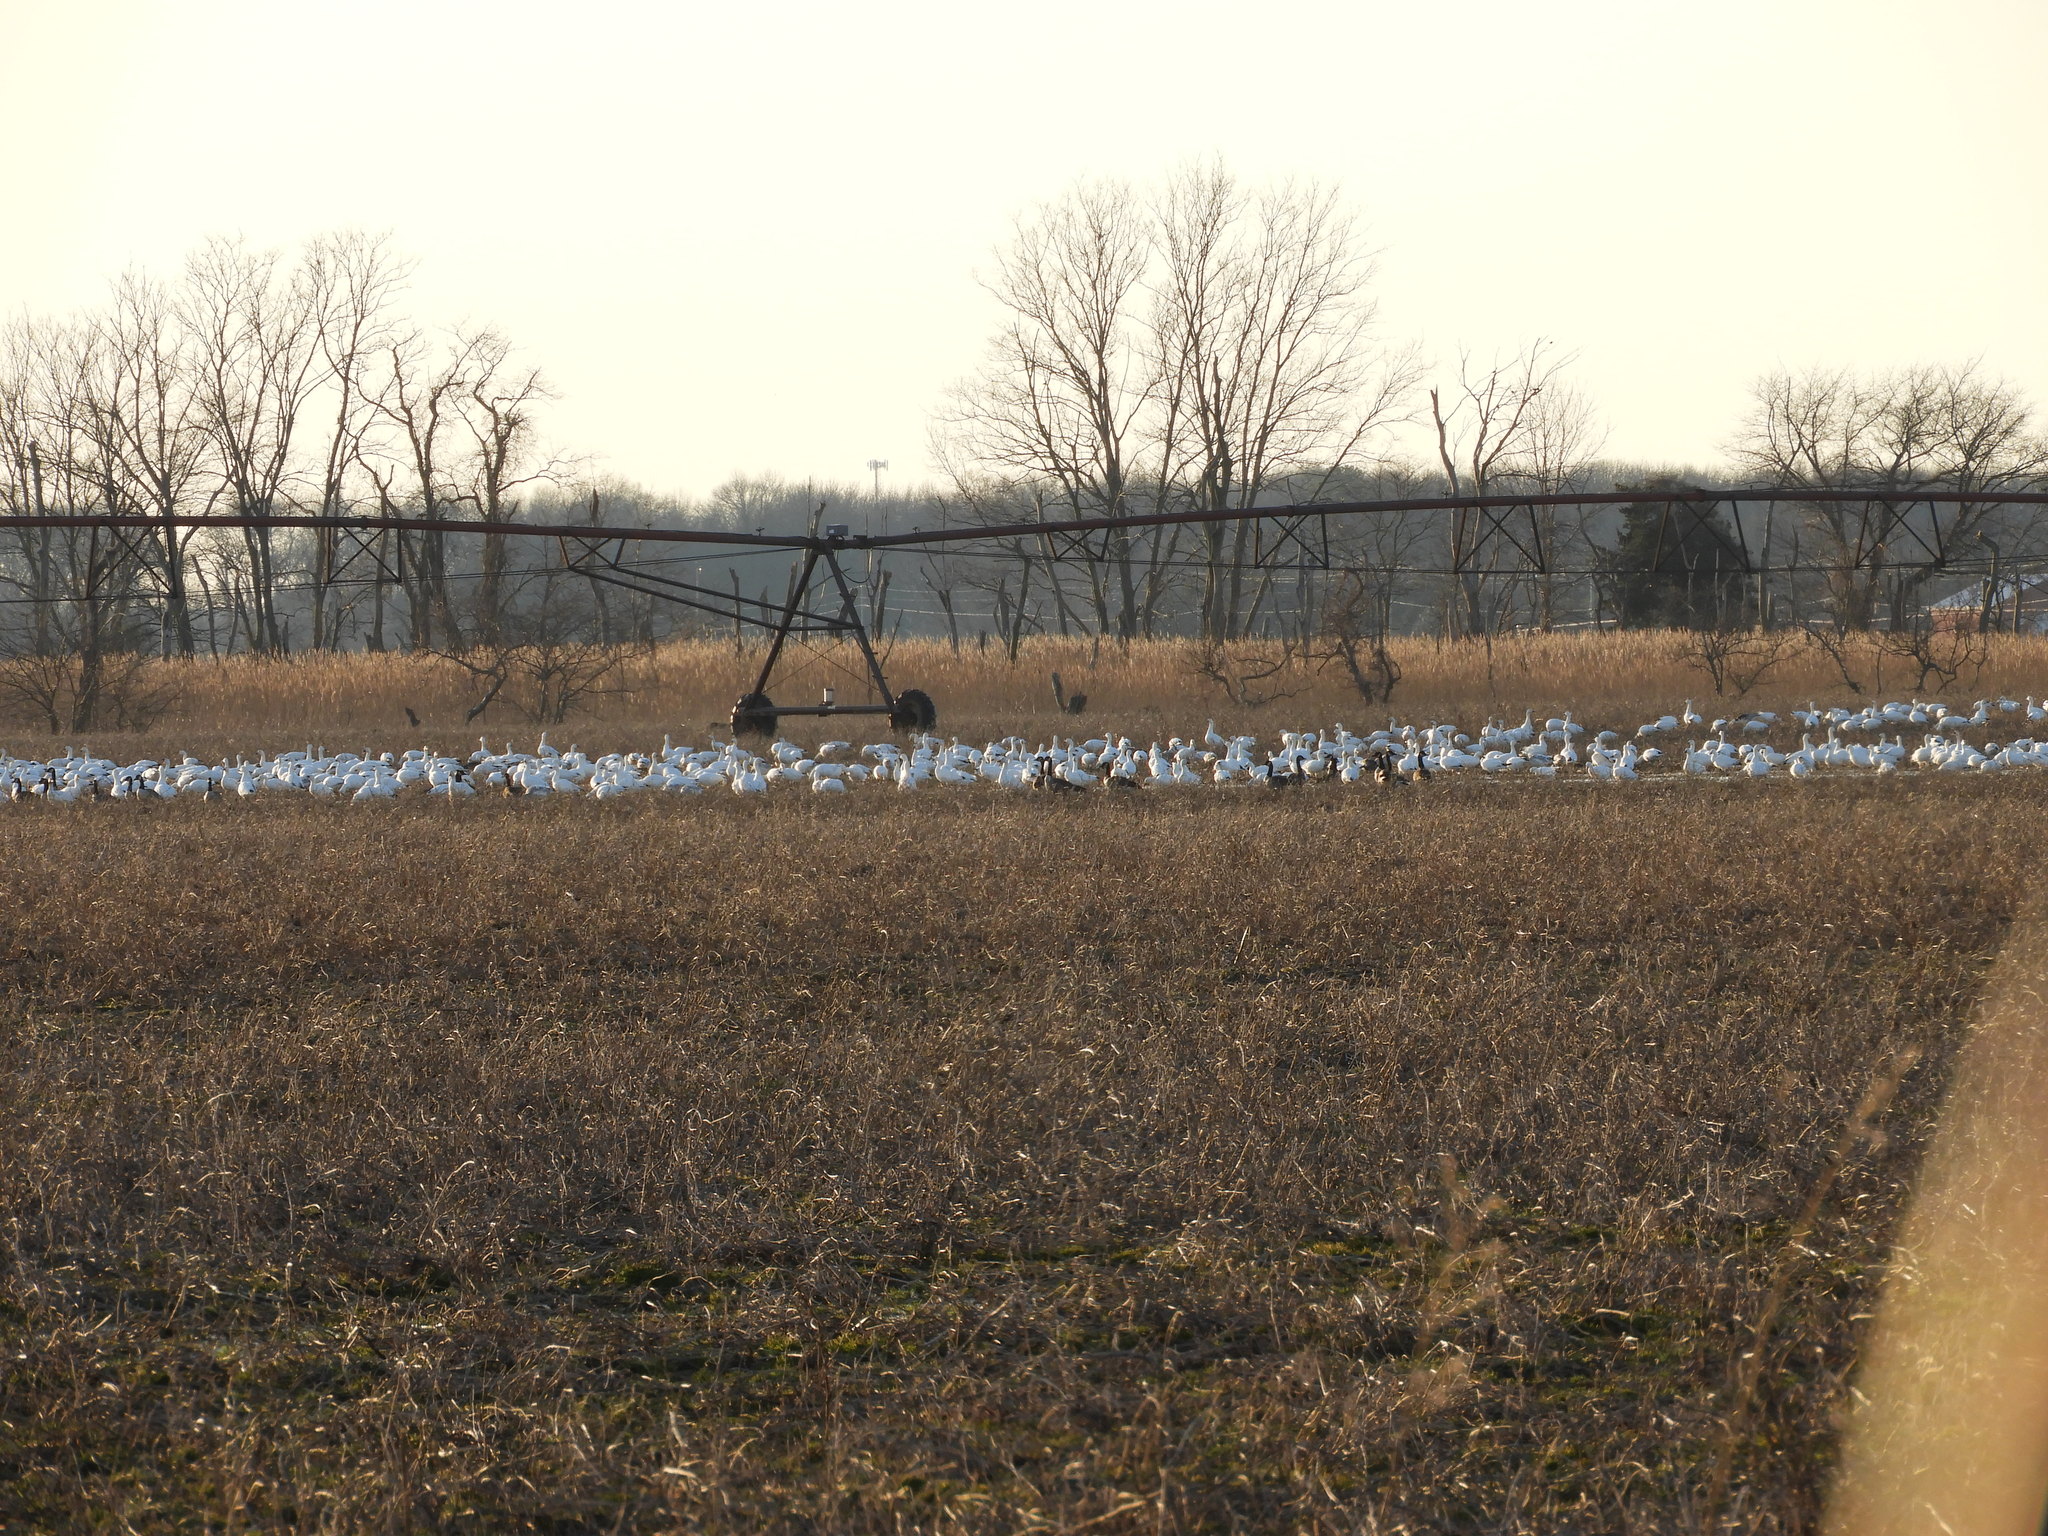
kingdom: Animalia
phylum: Chordata
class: Aves
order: Anseriformes
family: Anatidae
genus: Anser
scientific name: Anser caerulescens
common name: Snow goose
